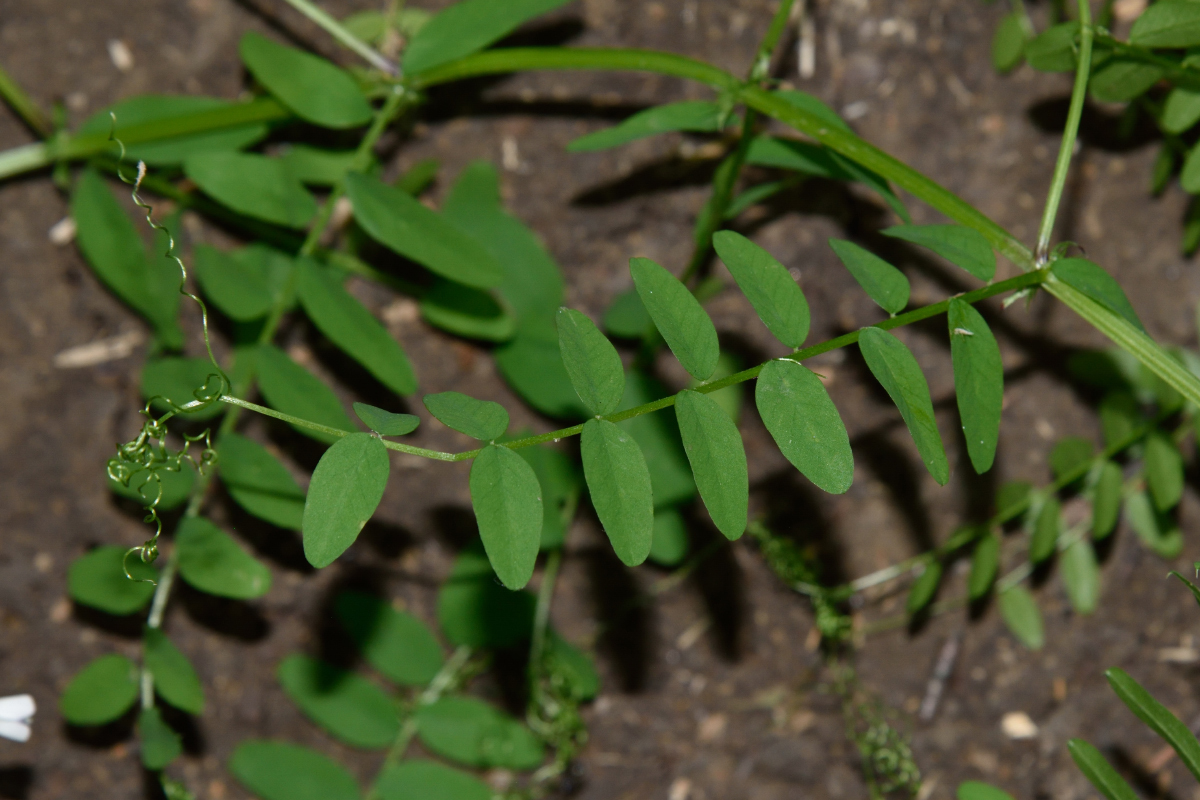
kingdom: Plantae
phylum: Tracheophyta
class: Magnoliopsida
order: Fabales
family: Fabaceae
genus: Vicia
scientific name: Vicia sylvatica
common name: Wood vetch
